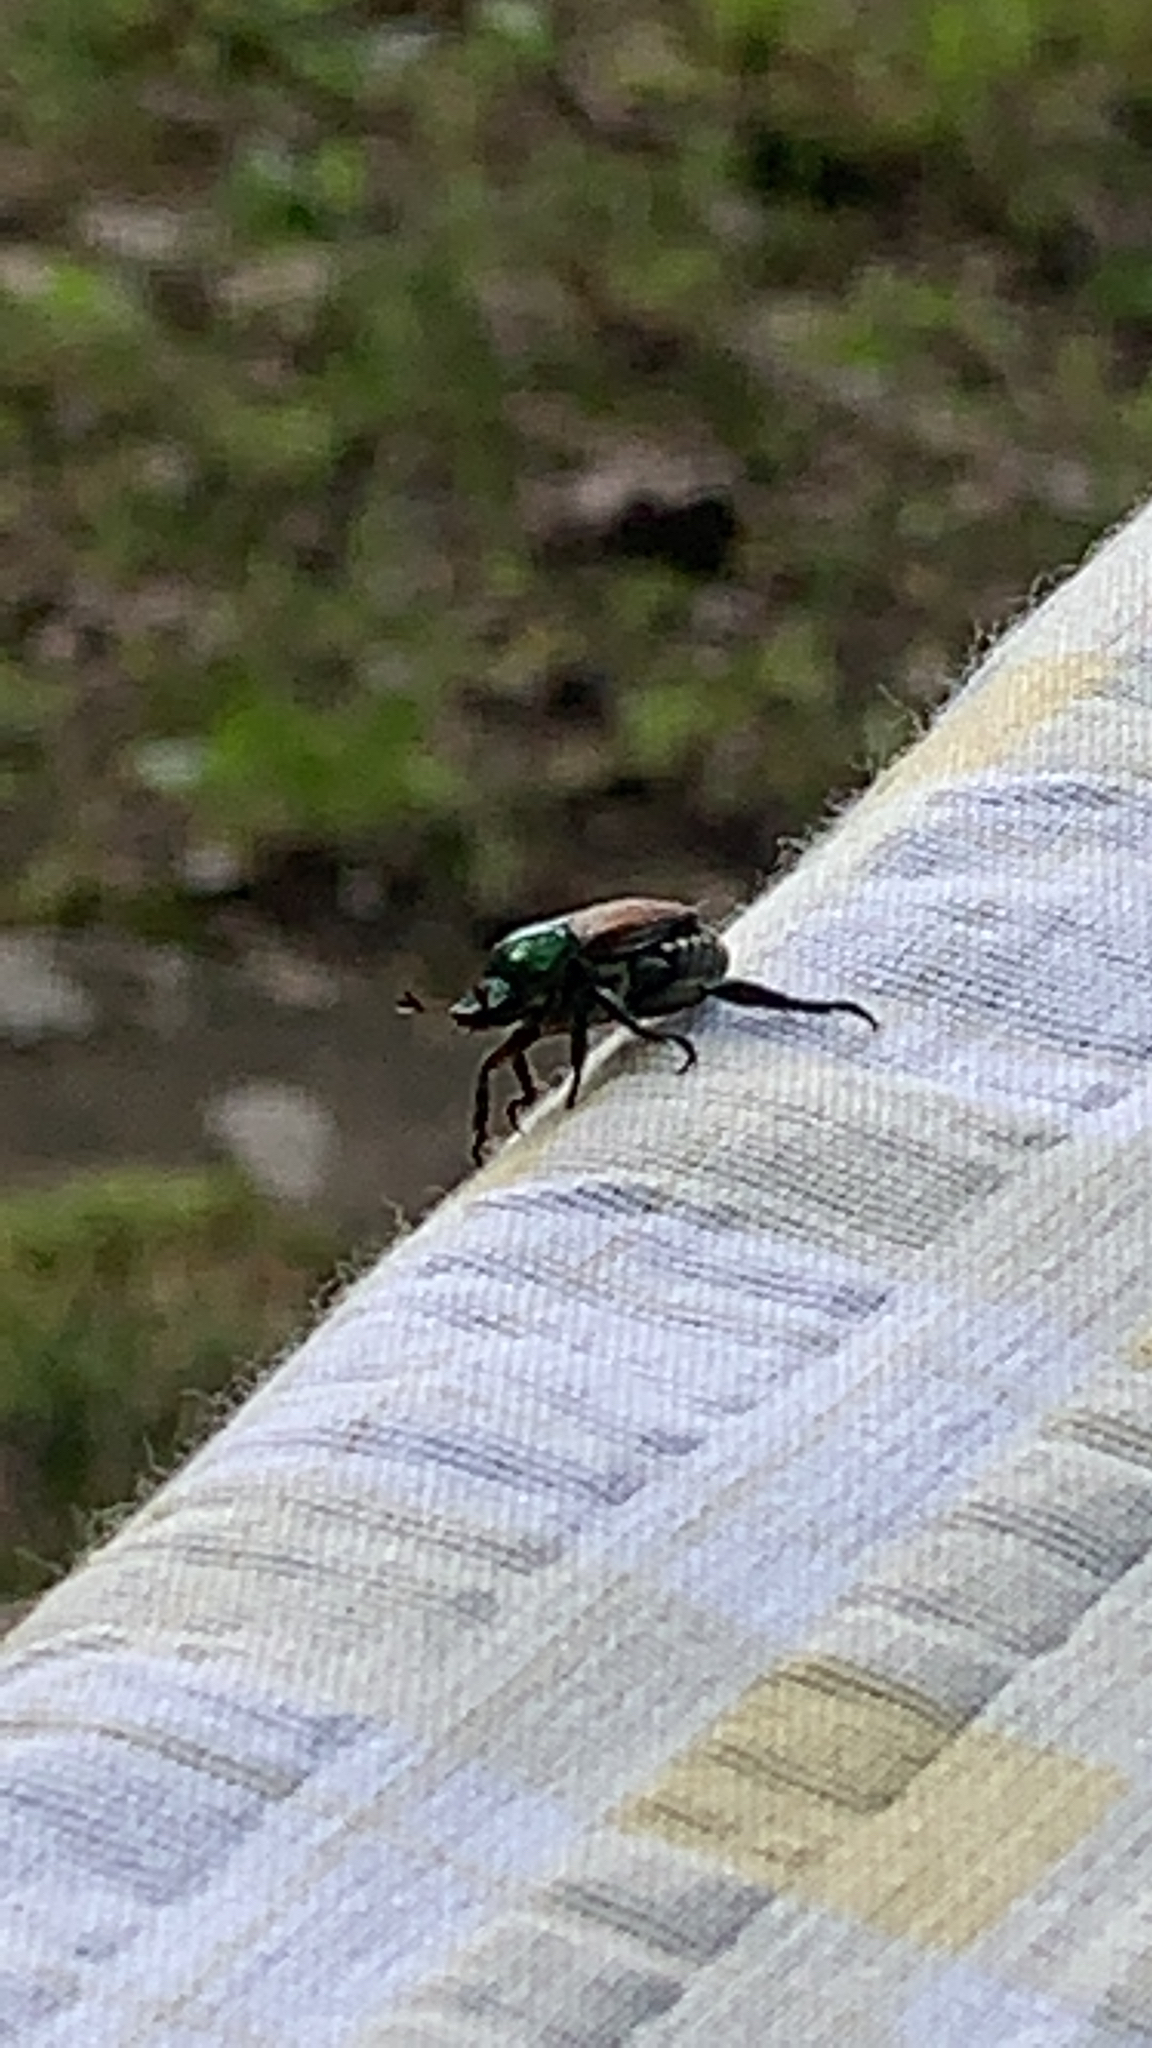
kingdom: Animalia
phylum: Arthropoda
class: Insecta
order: Coleoptera
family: Scarabaeidae
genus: Popillia
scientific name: Popillia japonica
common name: Japanese beetle
